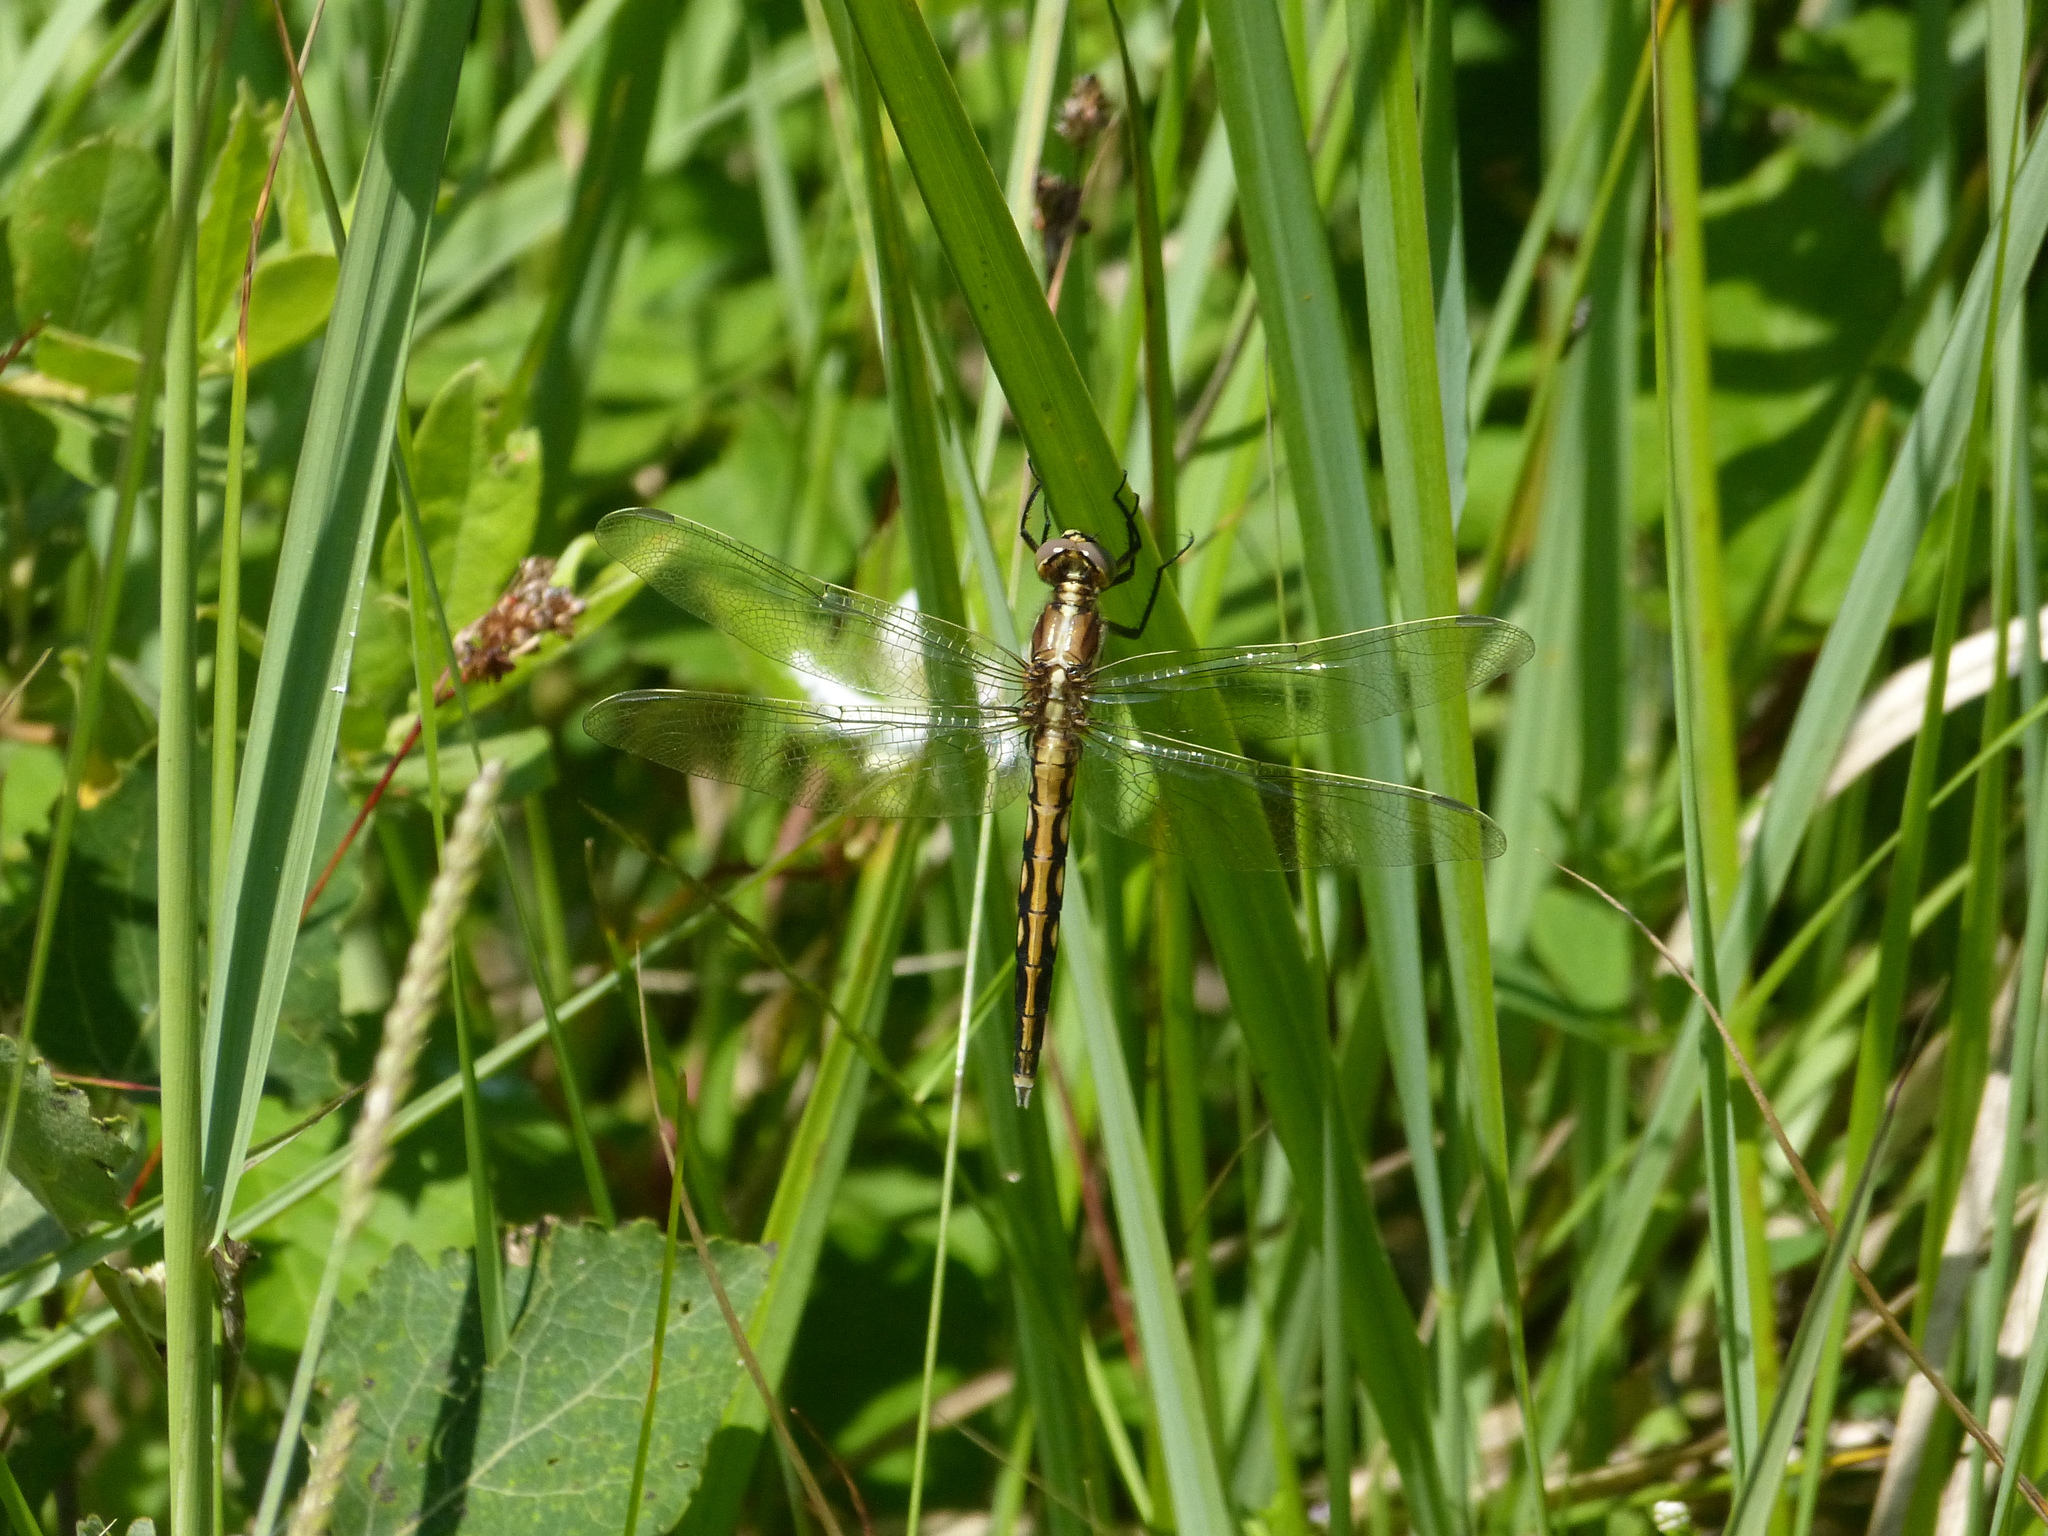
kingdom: Animalia
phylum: Arthropoda
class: Insecta
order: Odonata
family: Libellulidae
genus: Orthetrum
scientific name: Orthetrum albistylum
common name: White-tailed skimmer
